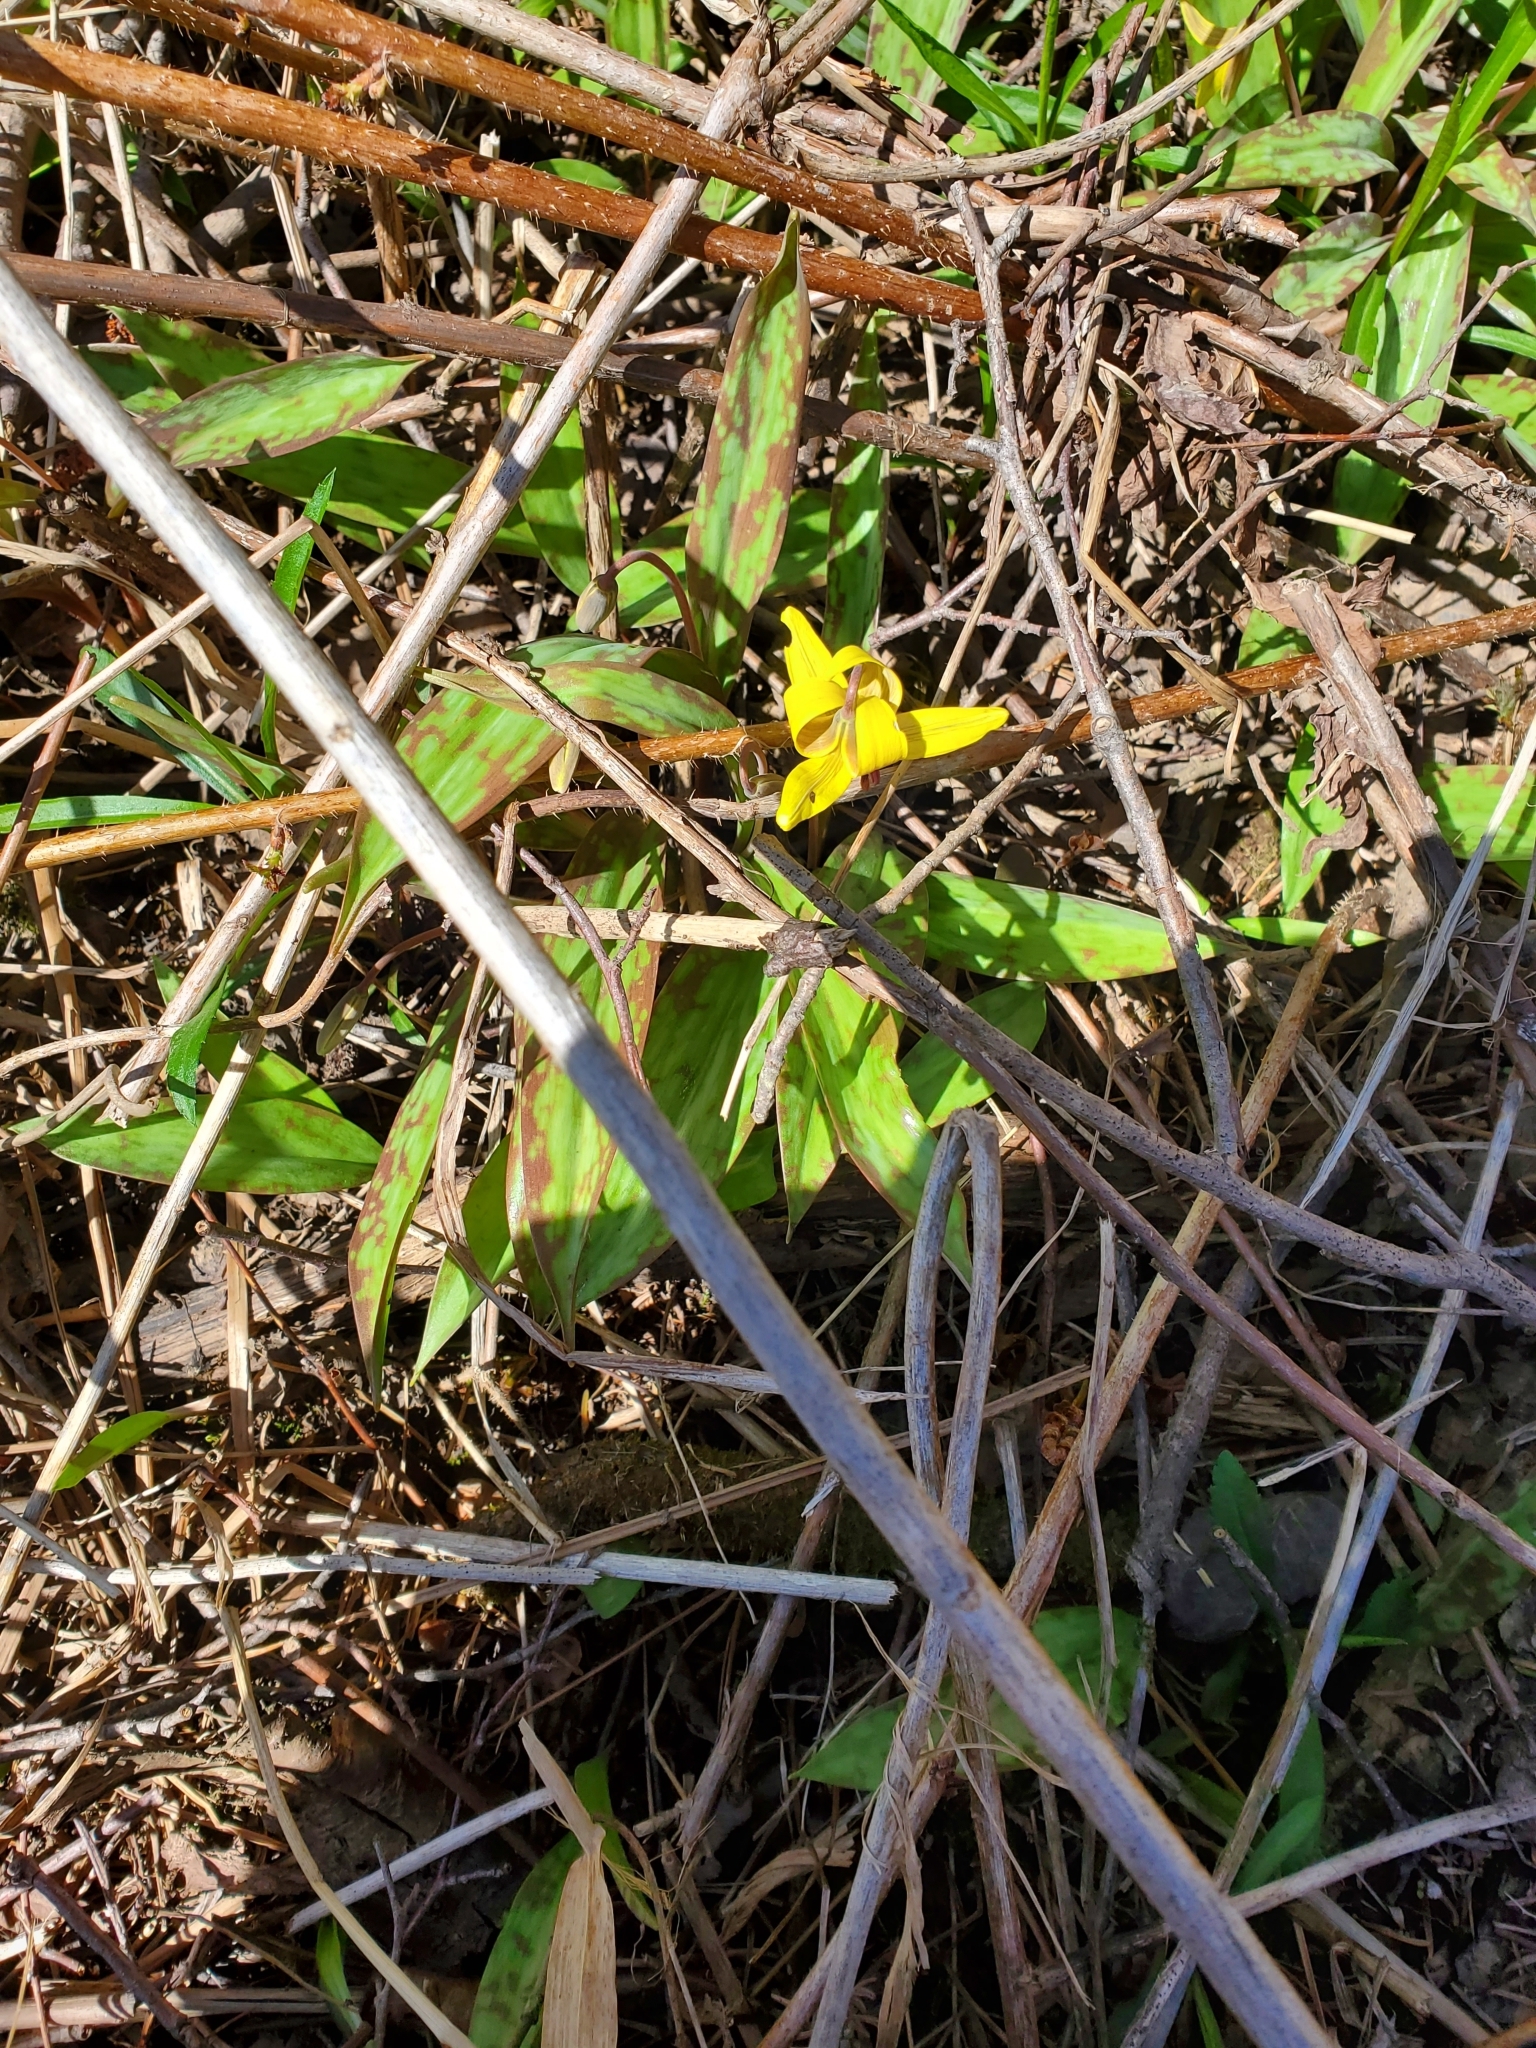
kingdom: Plantae
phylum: Tracheophyta
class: Liliopsida
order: Liliales
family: Liliaceae
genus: Erythronium
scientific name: Erythronium americanum
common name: Yellow adder's-tongue
